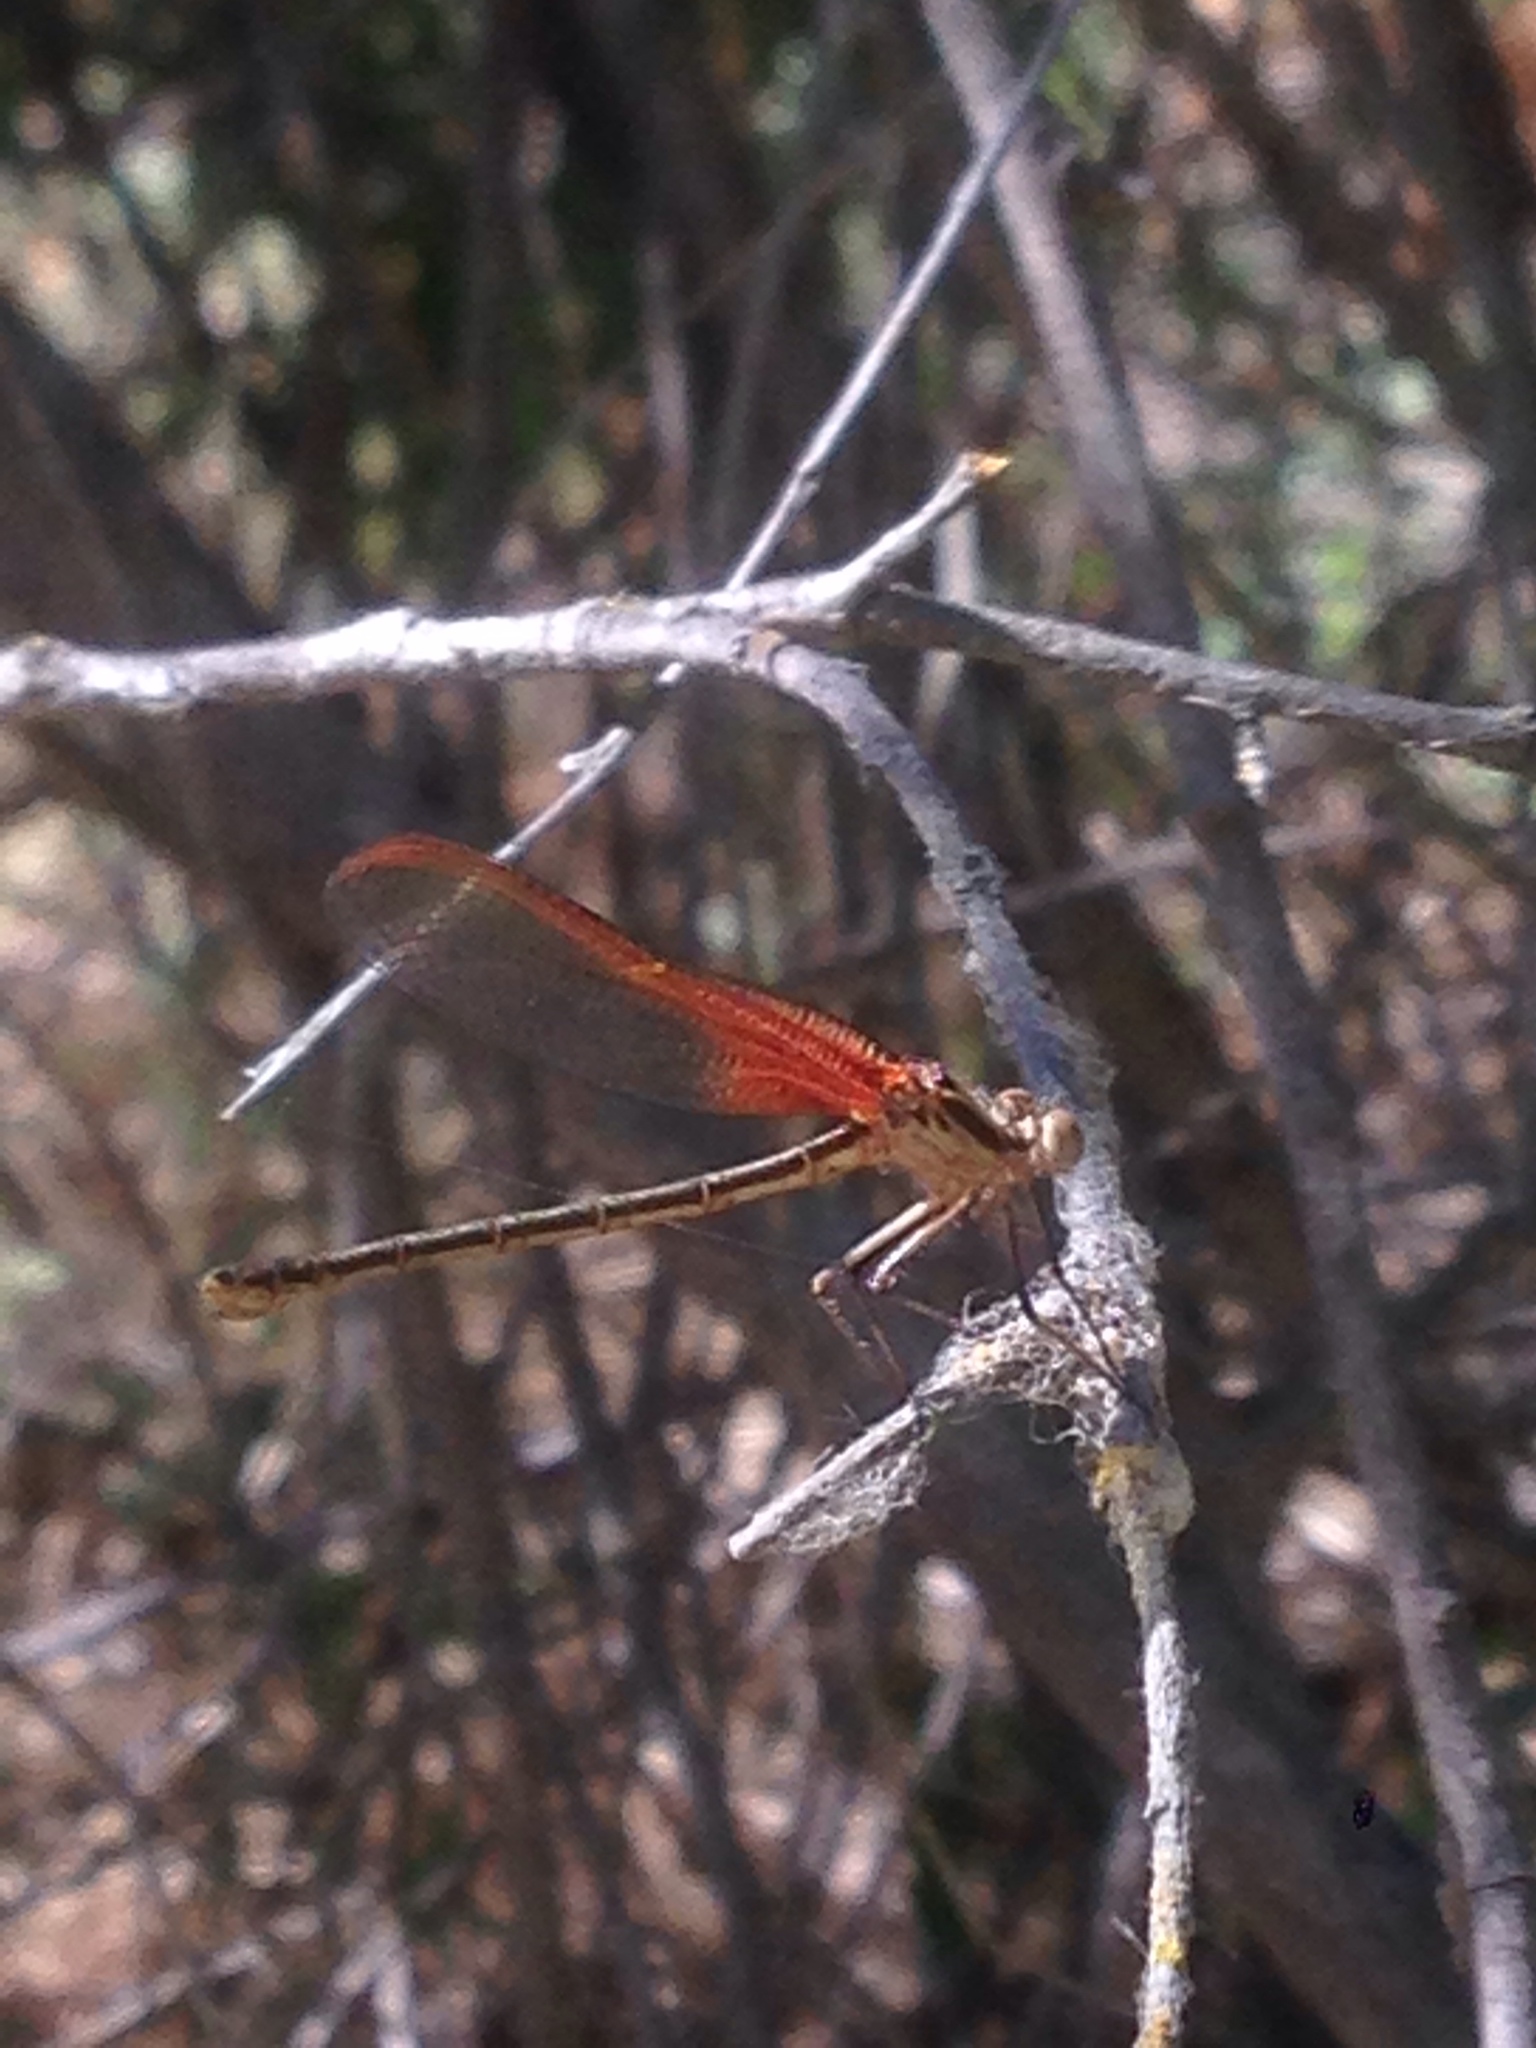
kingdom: Animalia
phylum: Arthropoda
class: Insecta
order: Odonata
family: Calopterygidae
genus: Hetaerina
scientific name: Hetaerina americana
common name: American rubyspot
